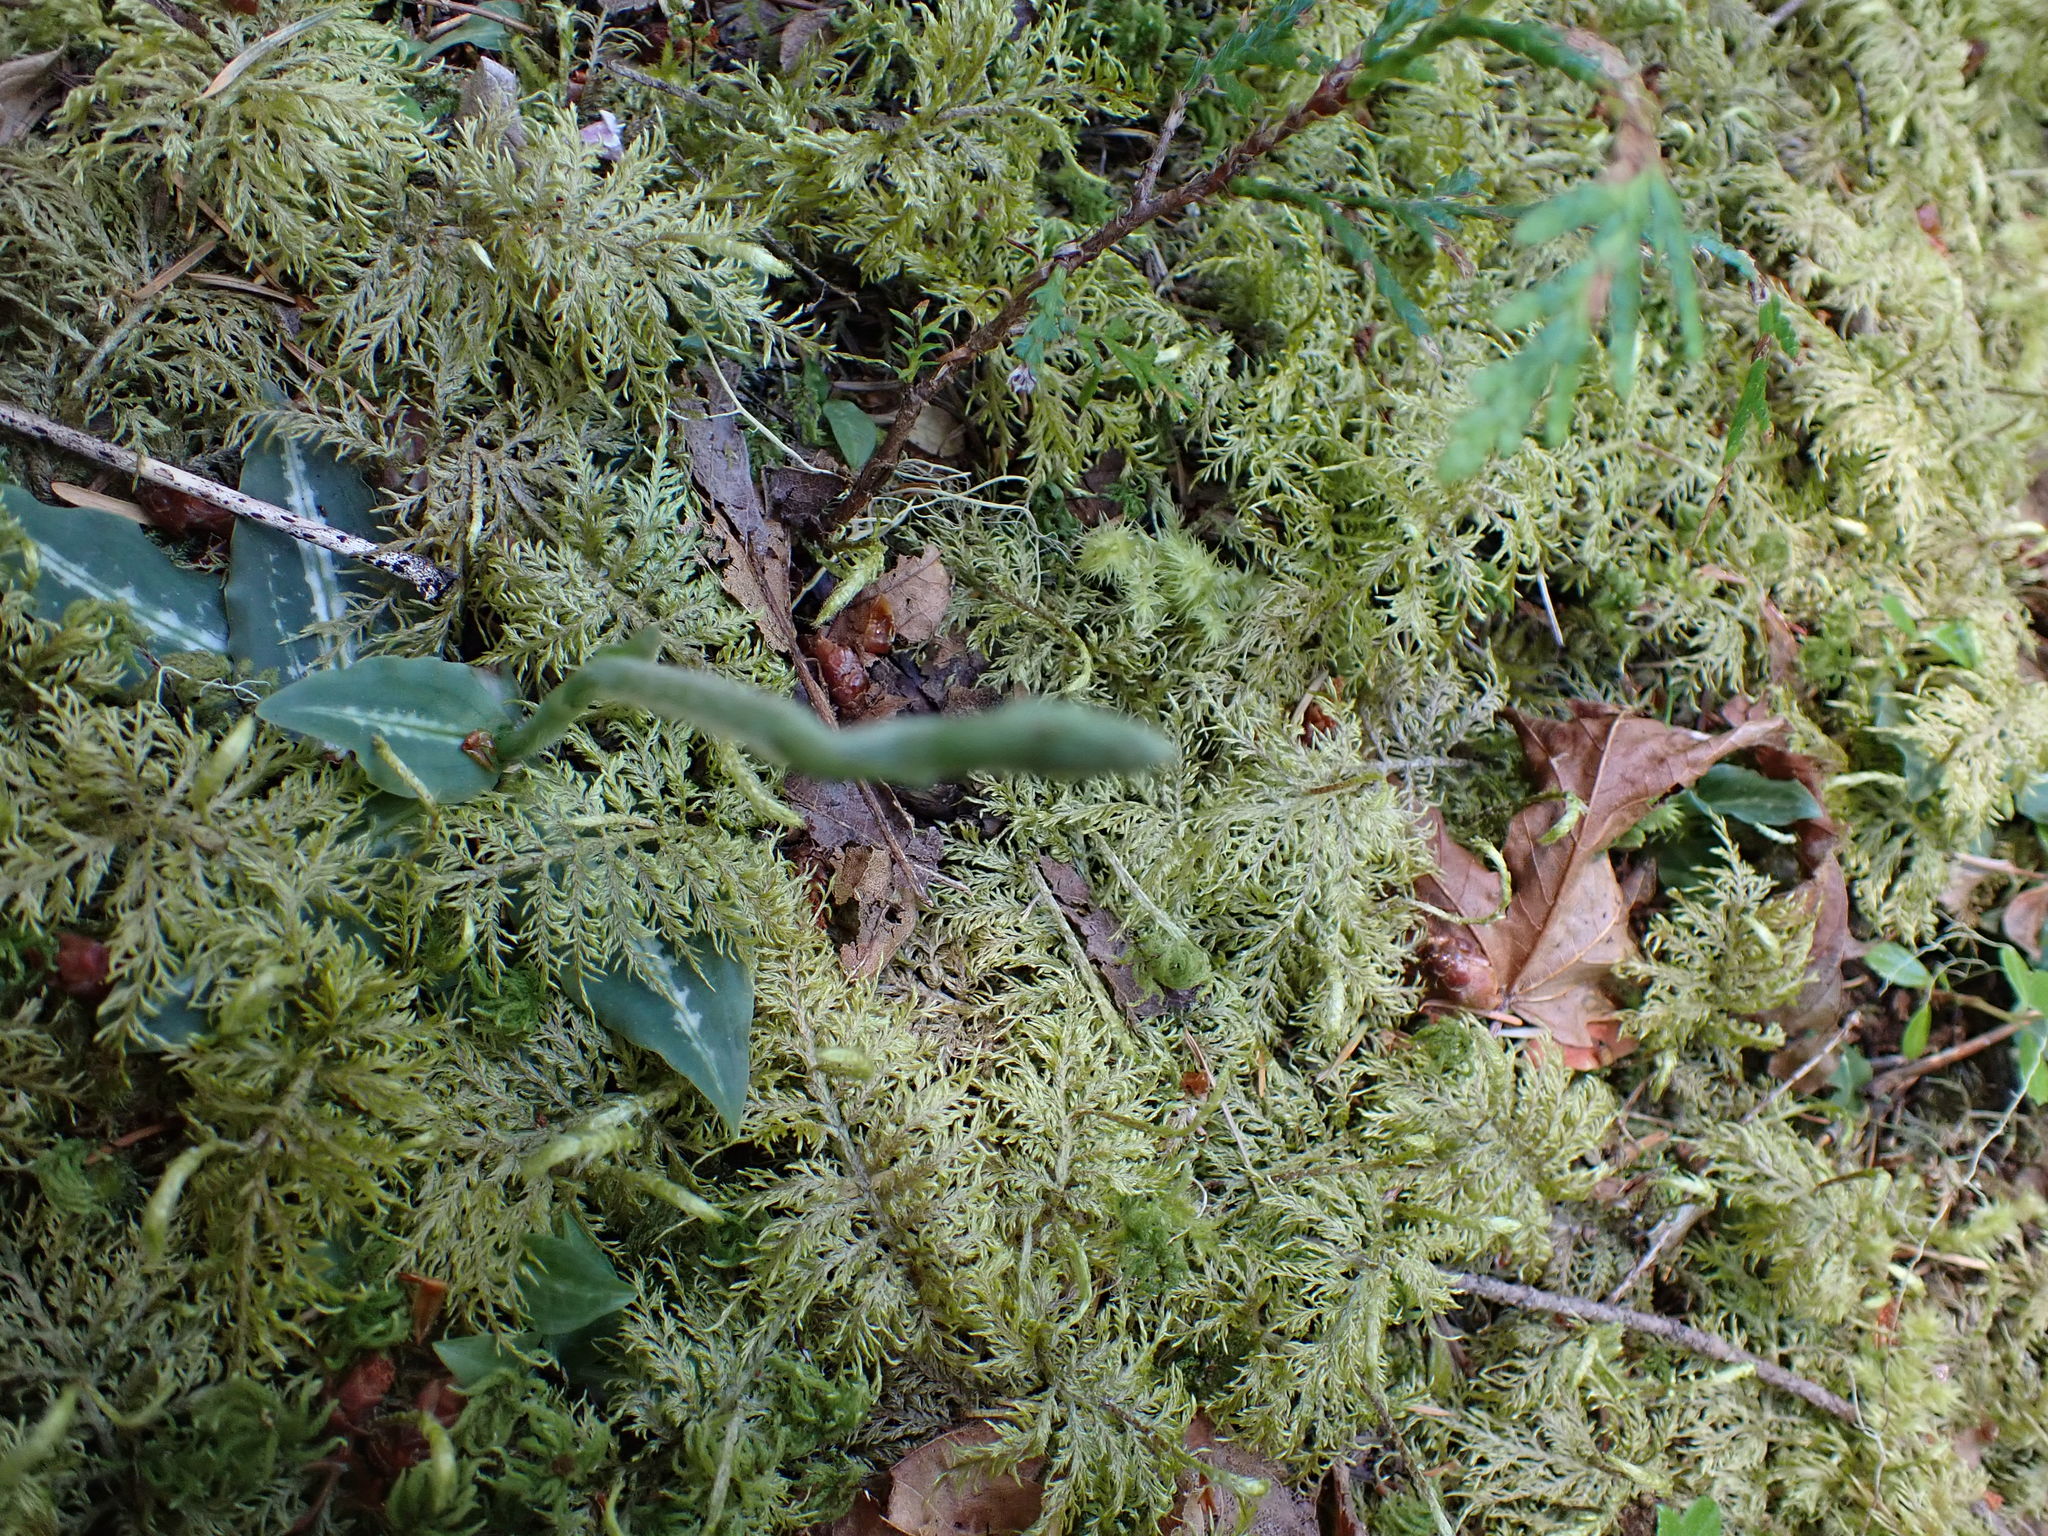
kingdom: Plantae
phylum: Tracheophyta
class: Liliopsida
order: Asparagales
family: Orchidaceae
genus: Goodyera
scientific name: Goodyera oblongifolia
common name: Giant rattlesnake-plantain
